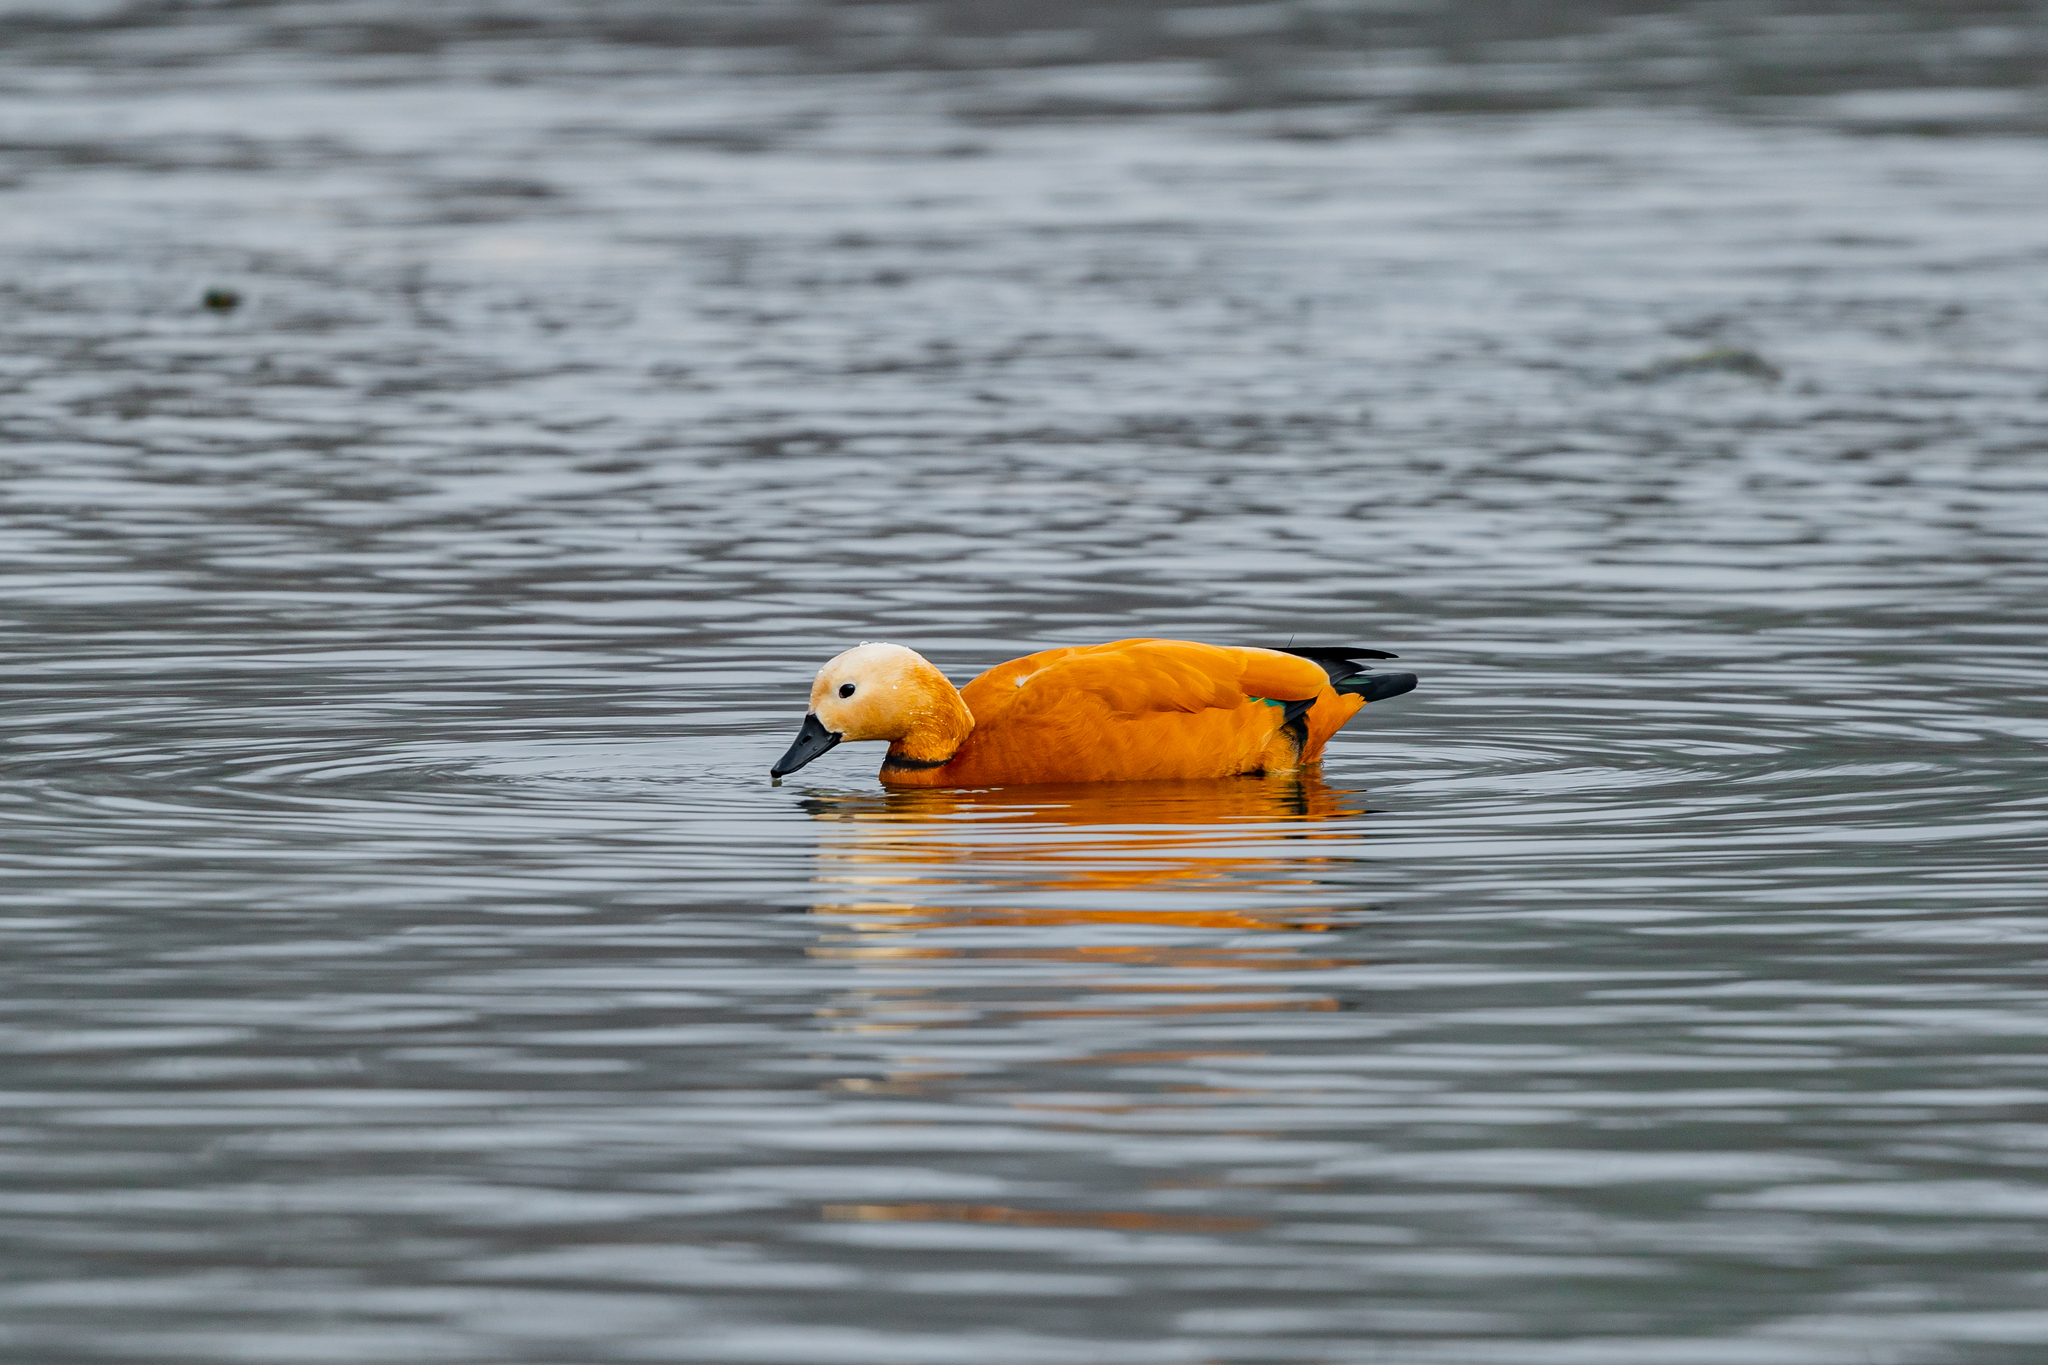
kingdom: Animalia
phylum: Chordata
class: Aves
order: Anseriformes
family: Anatidae
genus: Tadorna
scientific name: Tadorna ferruginea
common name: Ruddy shelduck
